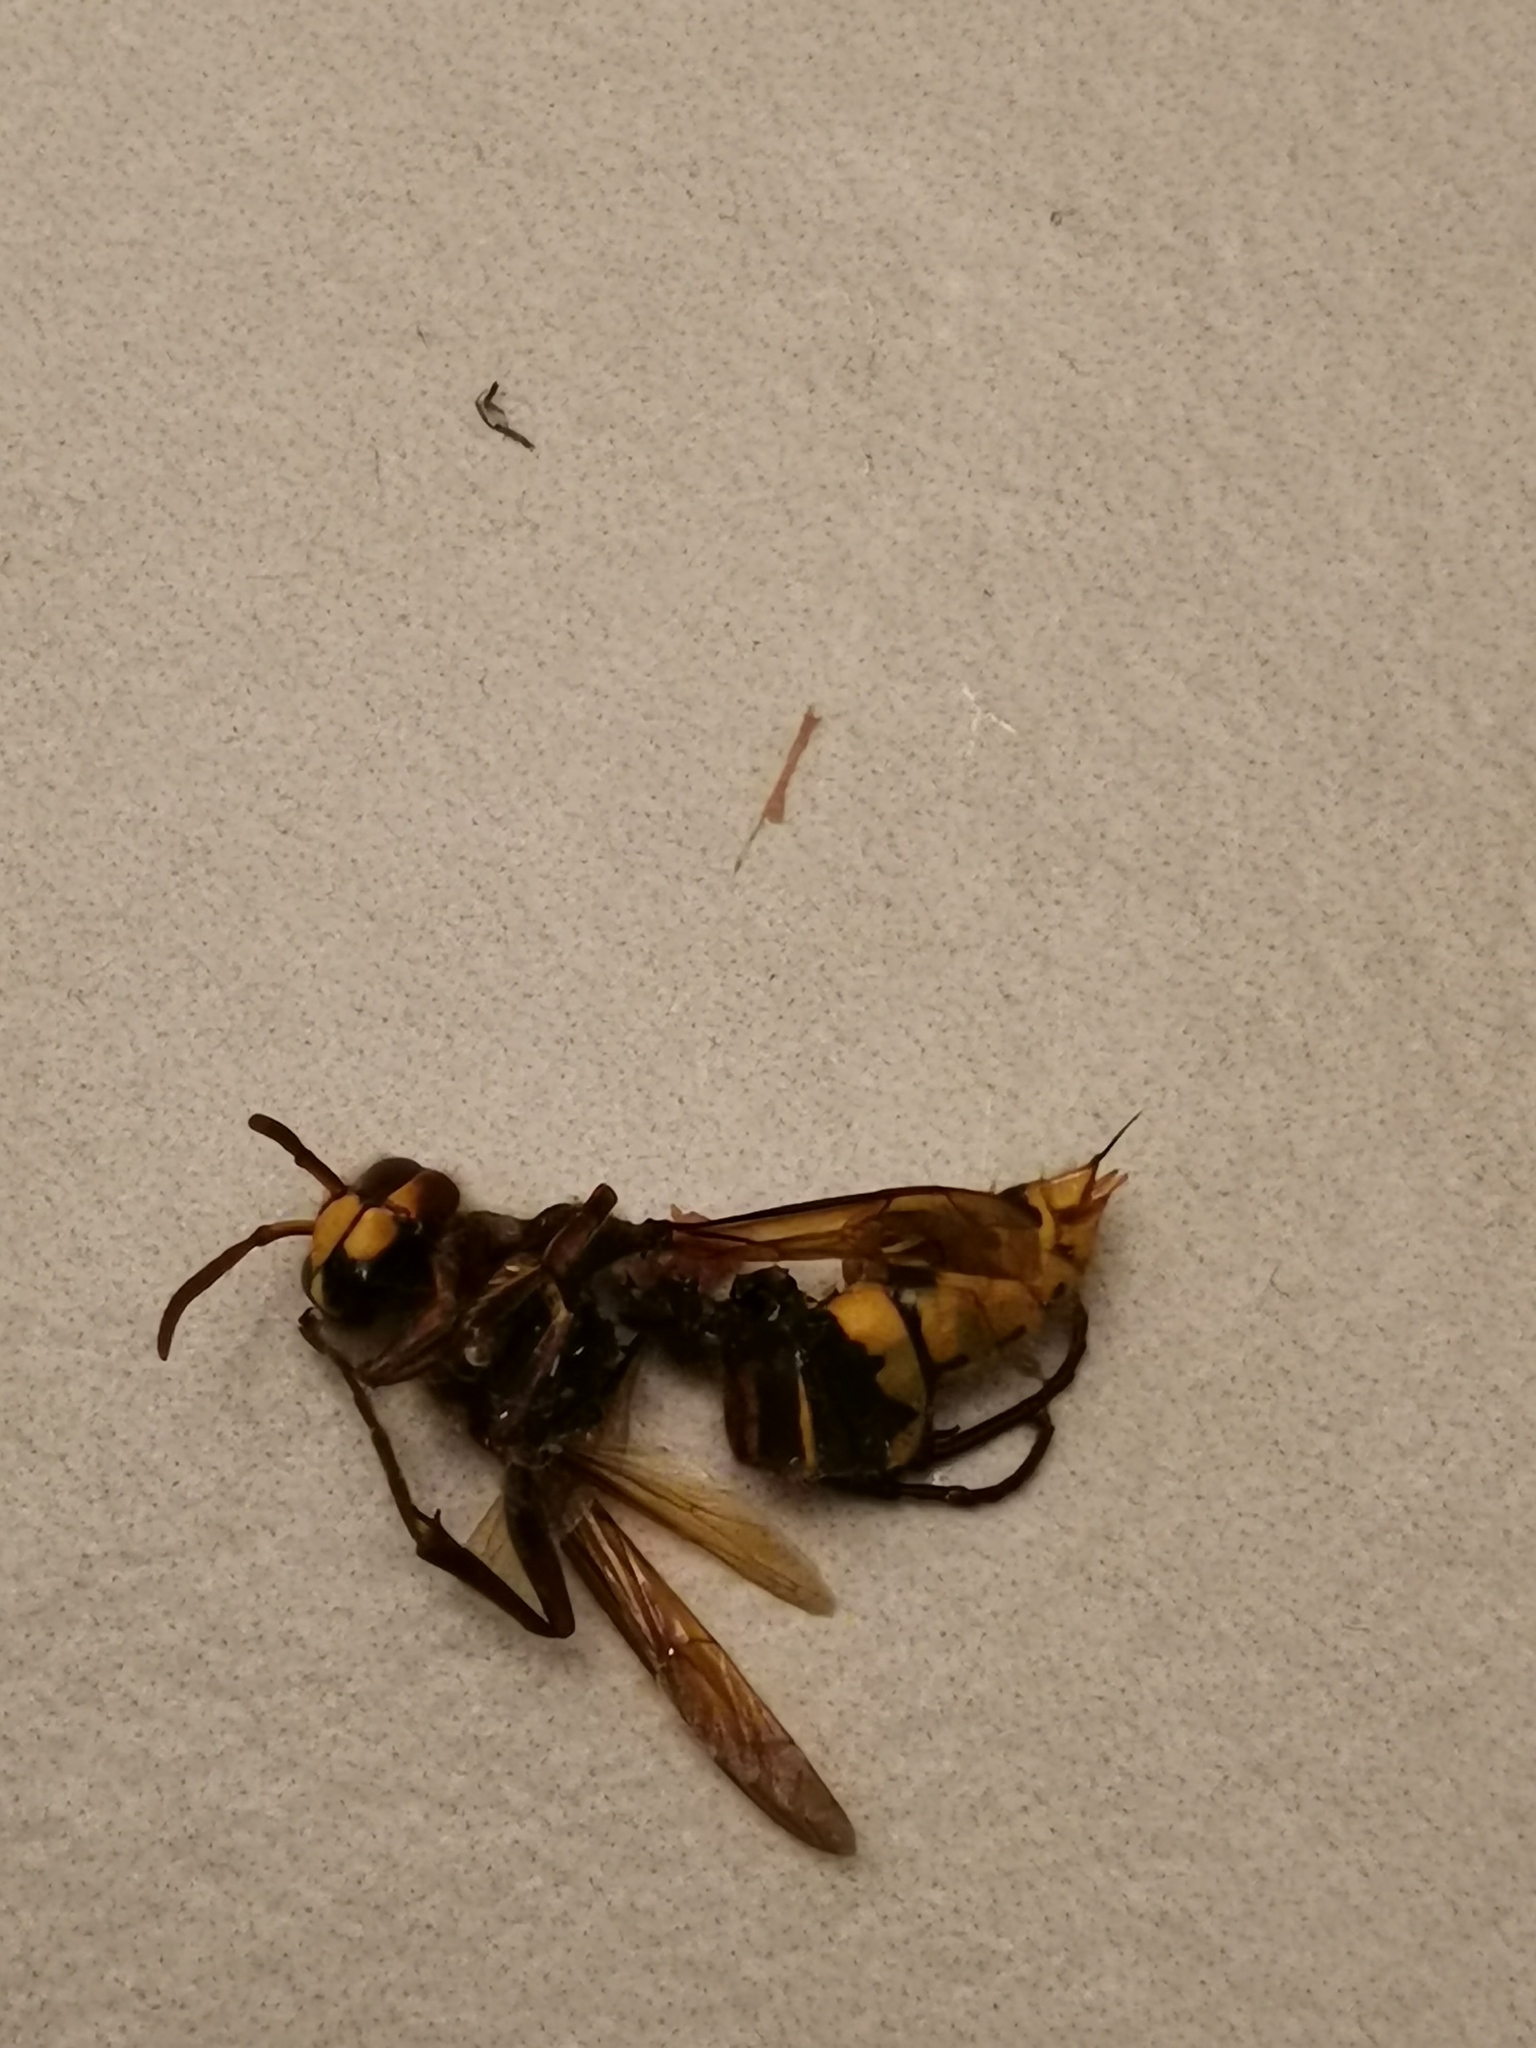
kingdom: Animalia
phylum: Arthropoda
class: Insecta
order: Hymenoptera
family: Vespidae
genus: Vespa
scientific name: Vespa crabro
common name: Hornet
